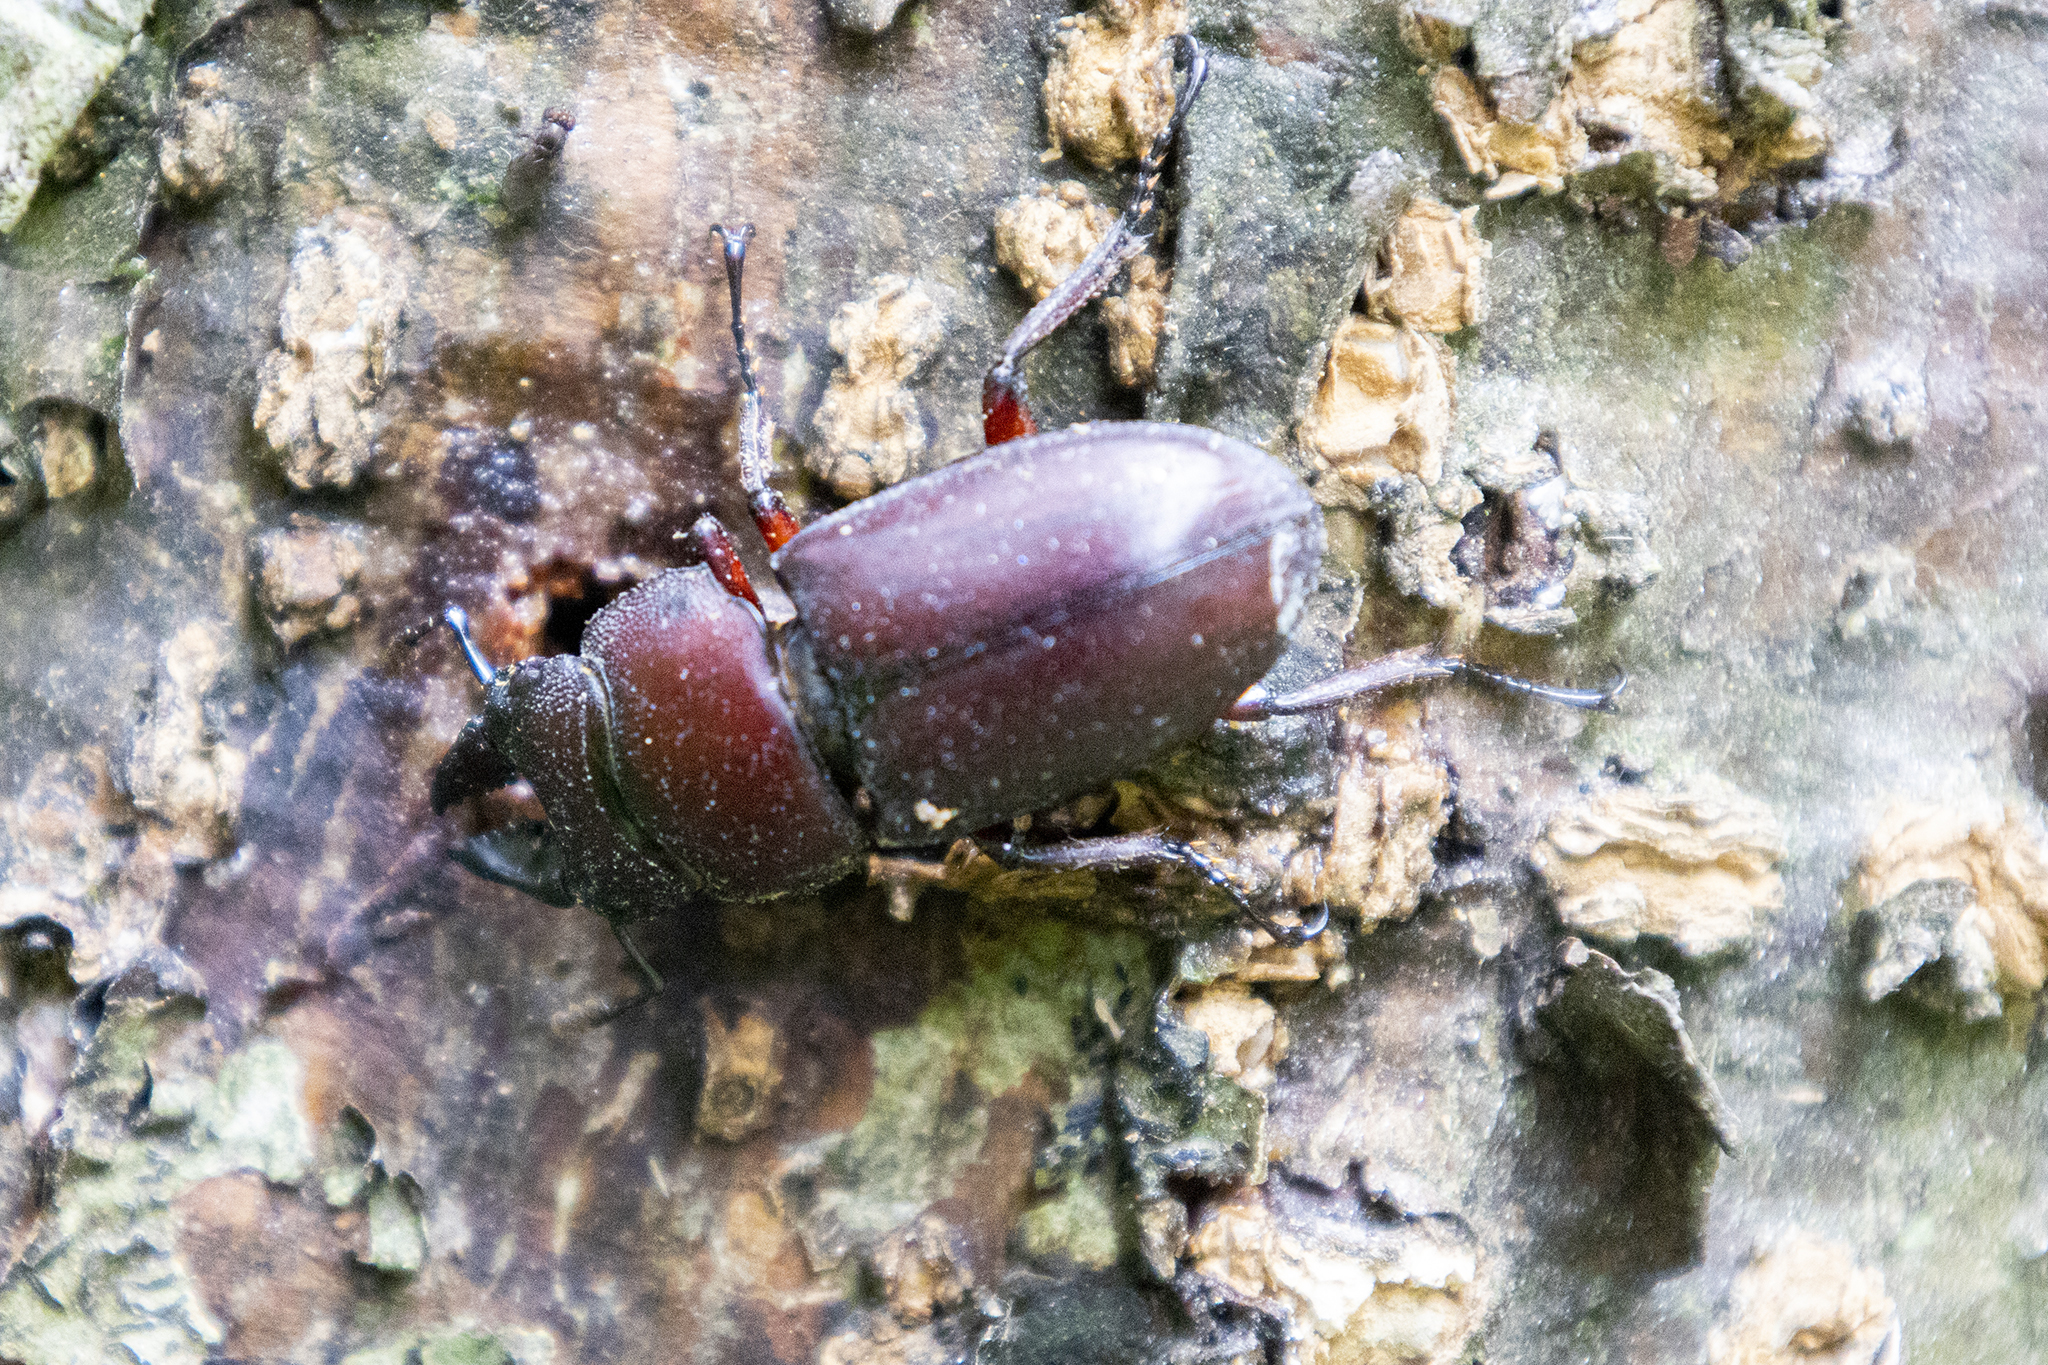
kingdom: Animalia
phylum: Arthropoda
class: Insecta
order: Coleoptera
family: Lucanidae
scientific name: Lucanidae
